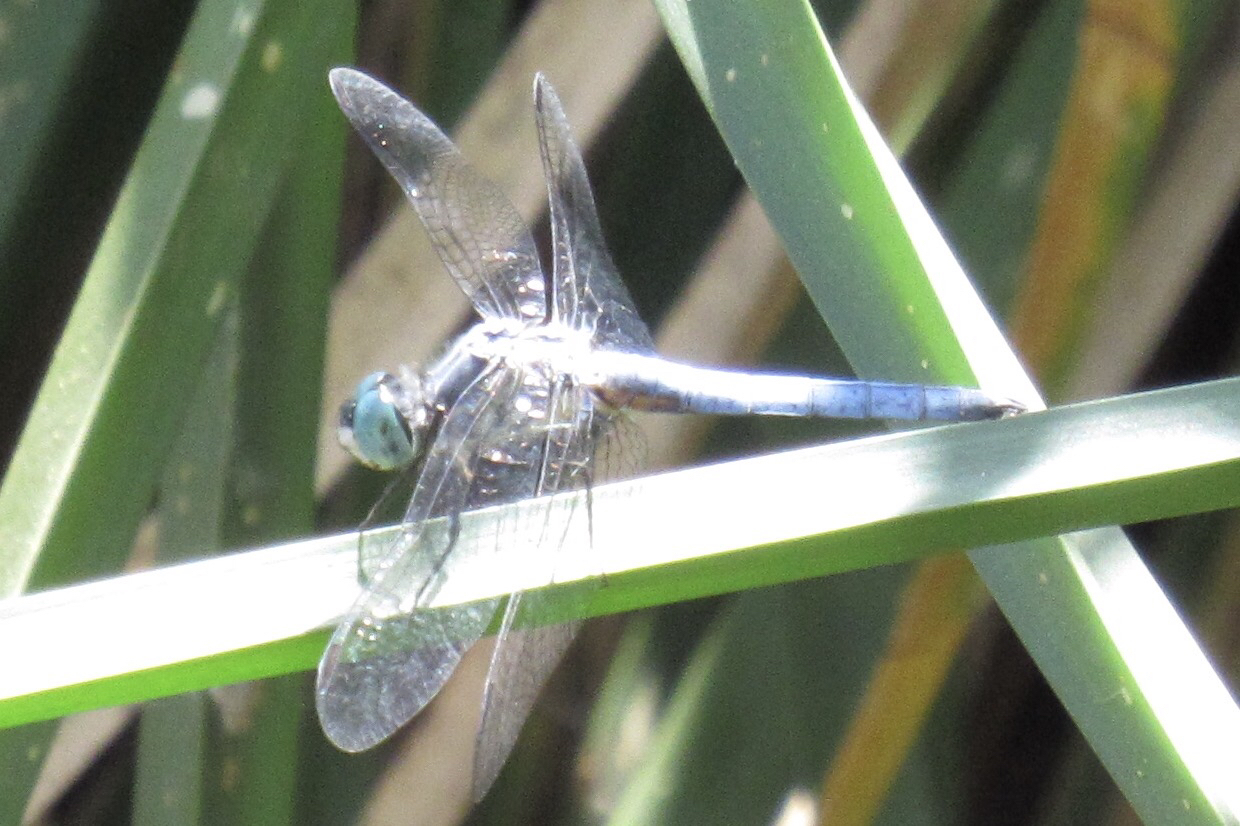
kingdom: Animalia
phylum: Arthropoda
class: Insecta
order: Odonata
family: Libellulidae
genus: Pachydiplax
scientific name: Pachydiplax longipennis
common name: Blue dasher
